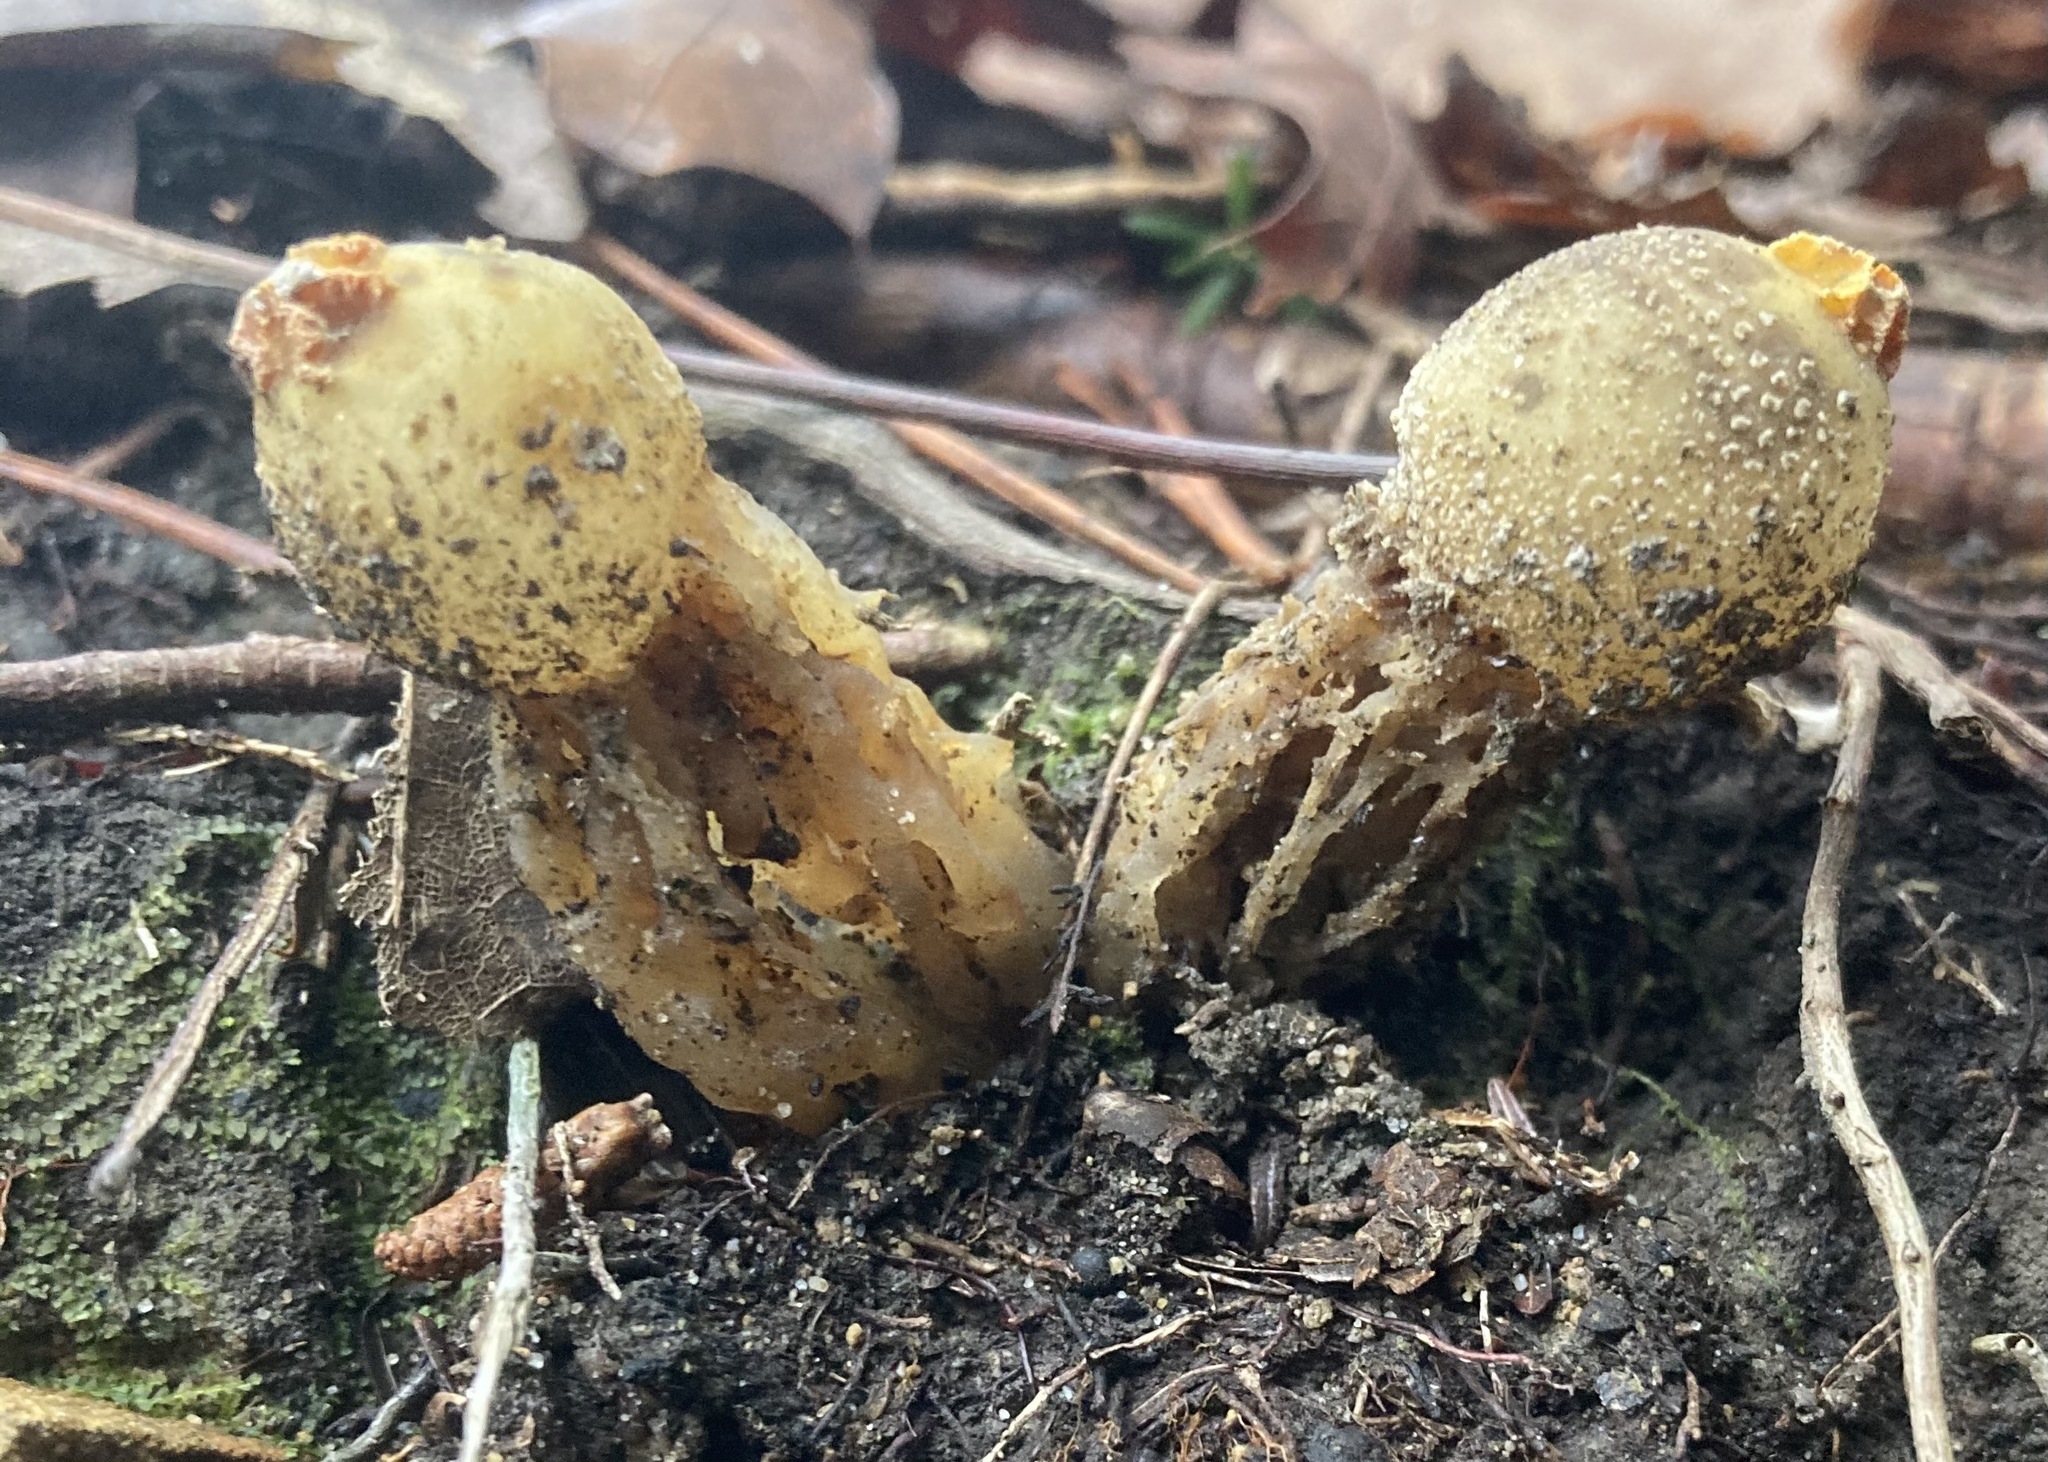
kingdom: Fungi
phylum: Basidiomycota
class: Agaricomycetes
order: Boletales
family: Calostomataceae
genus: Calostoma
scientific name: Calostoma ravenelii
